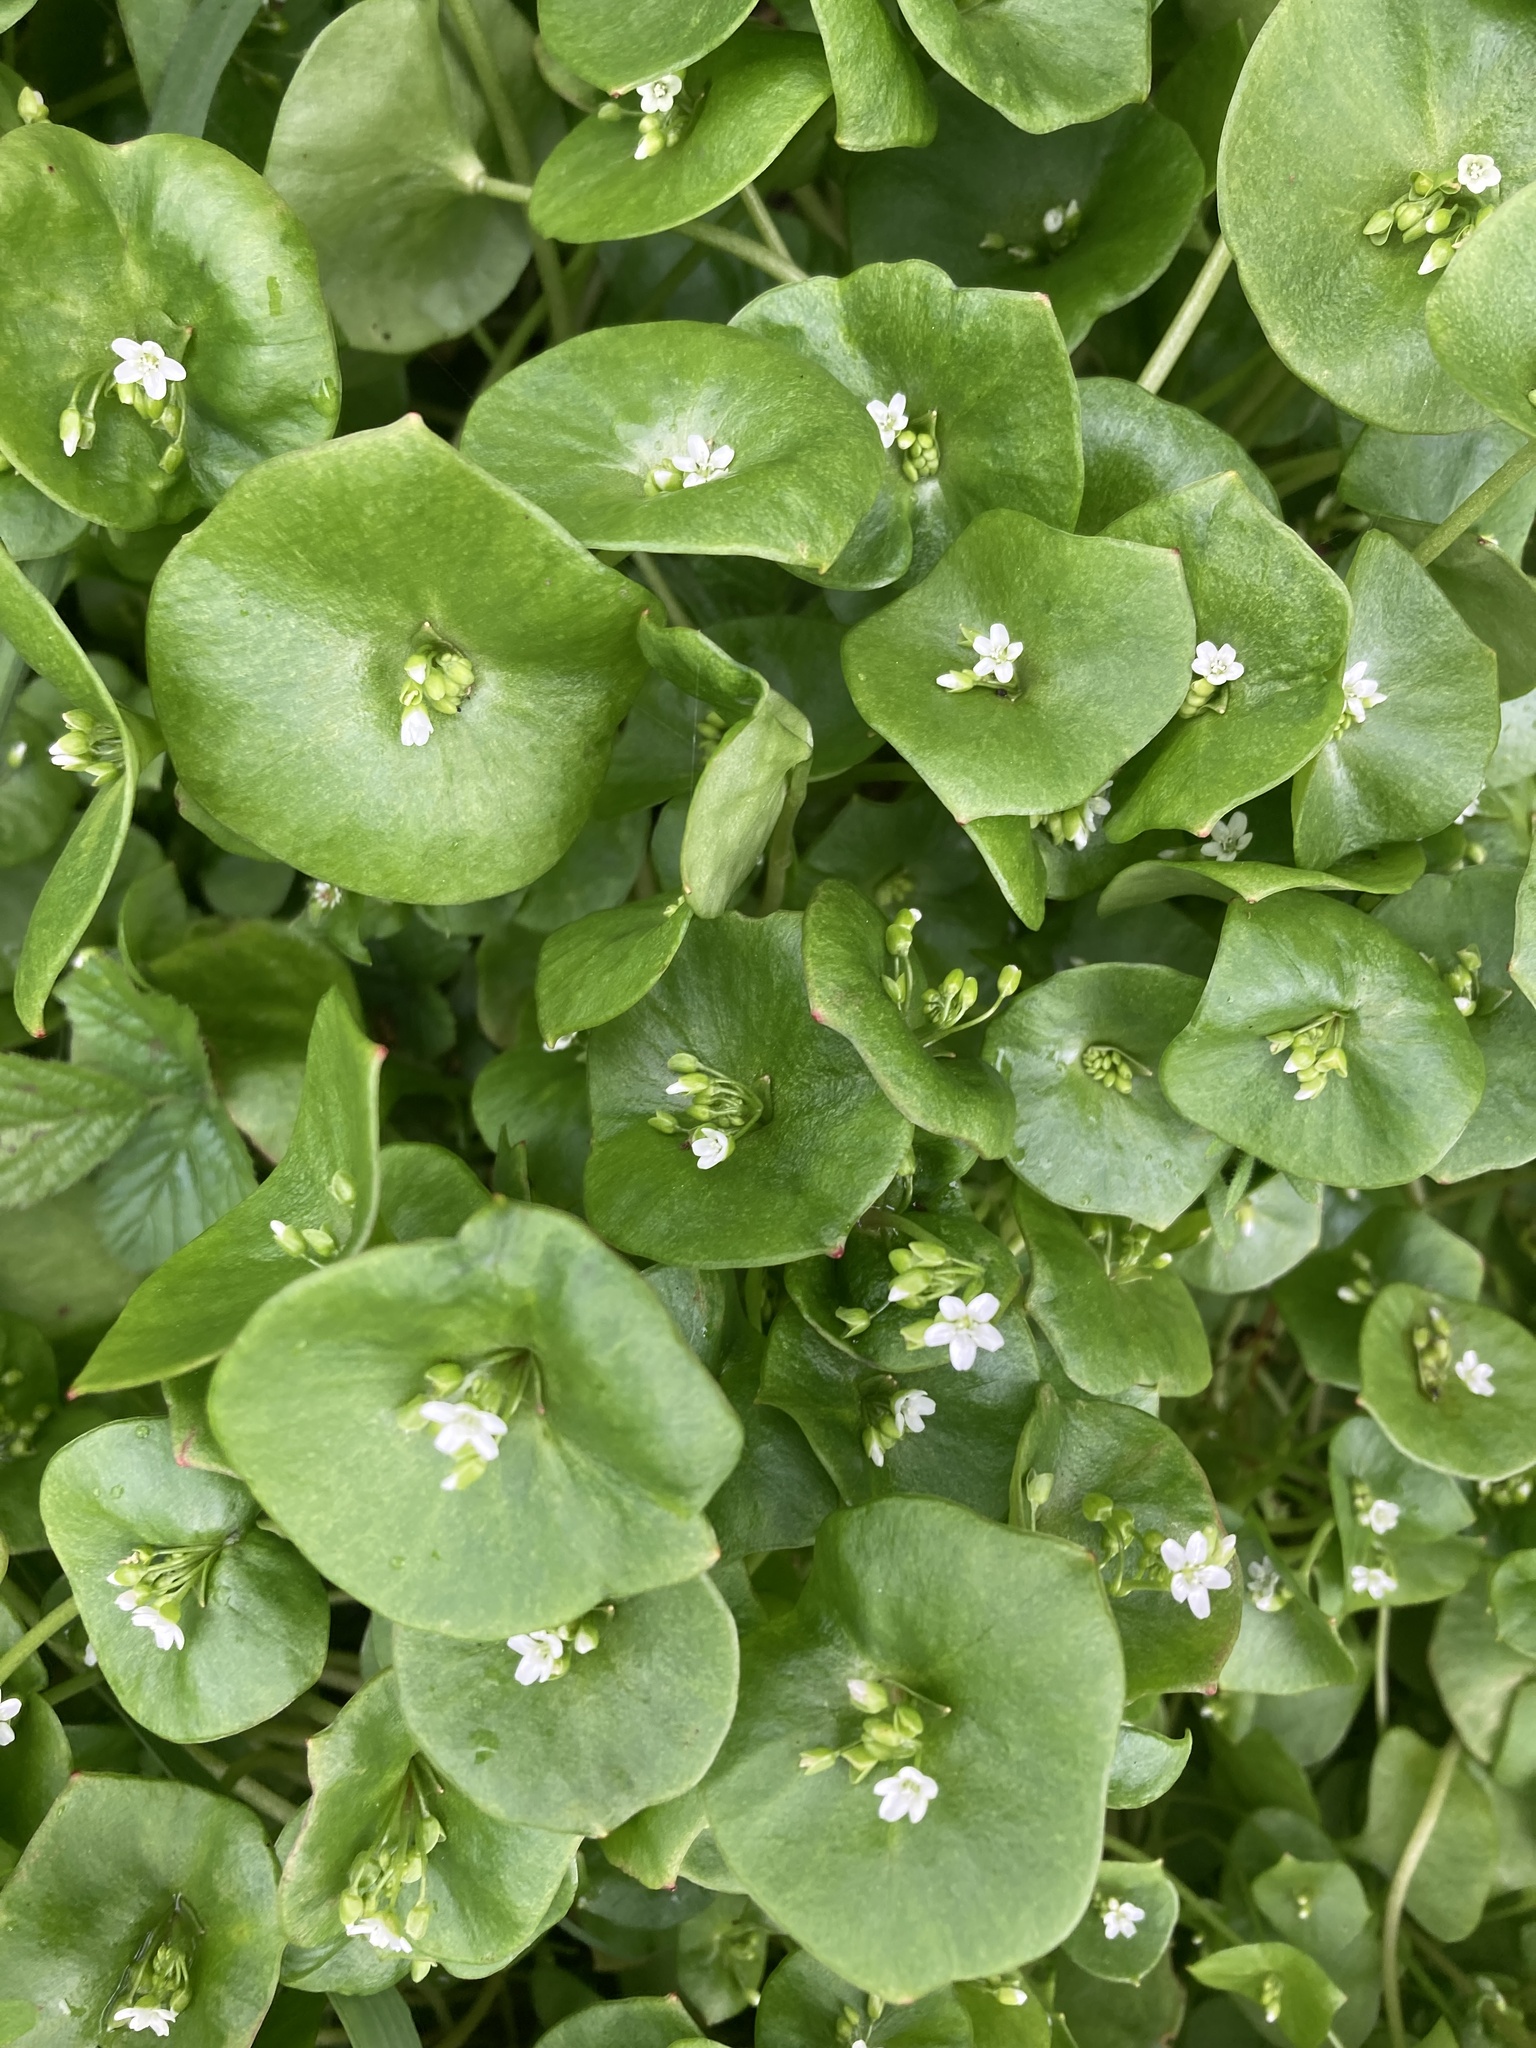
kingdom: Plantae
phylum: Tracheophyta
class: Magnoliopsida
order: Caryophyllales
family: Montiaceae
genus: Claytonia
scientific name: Claytonia perfoliata
